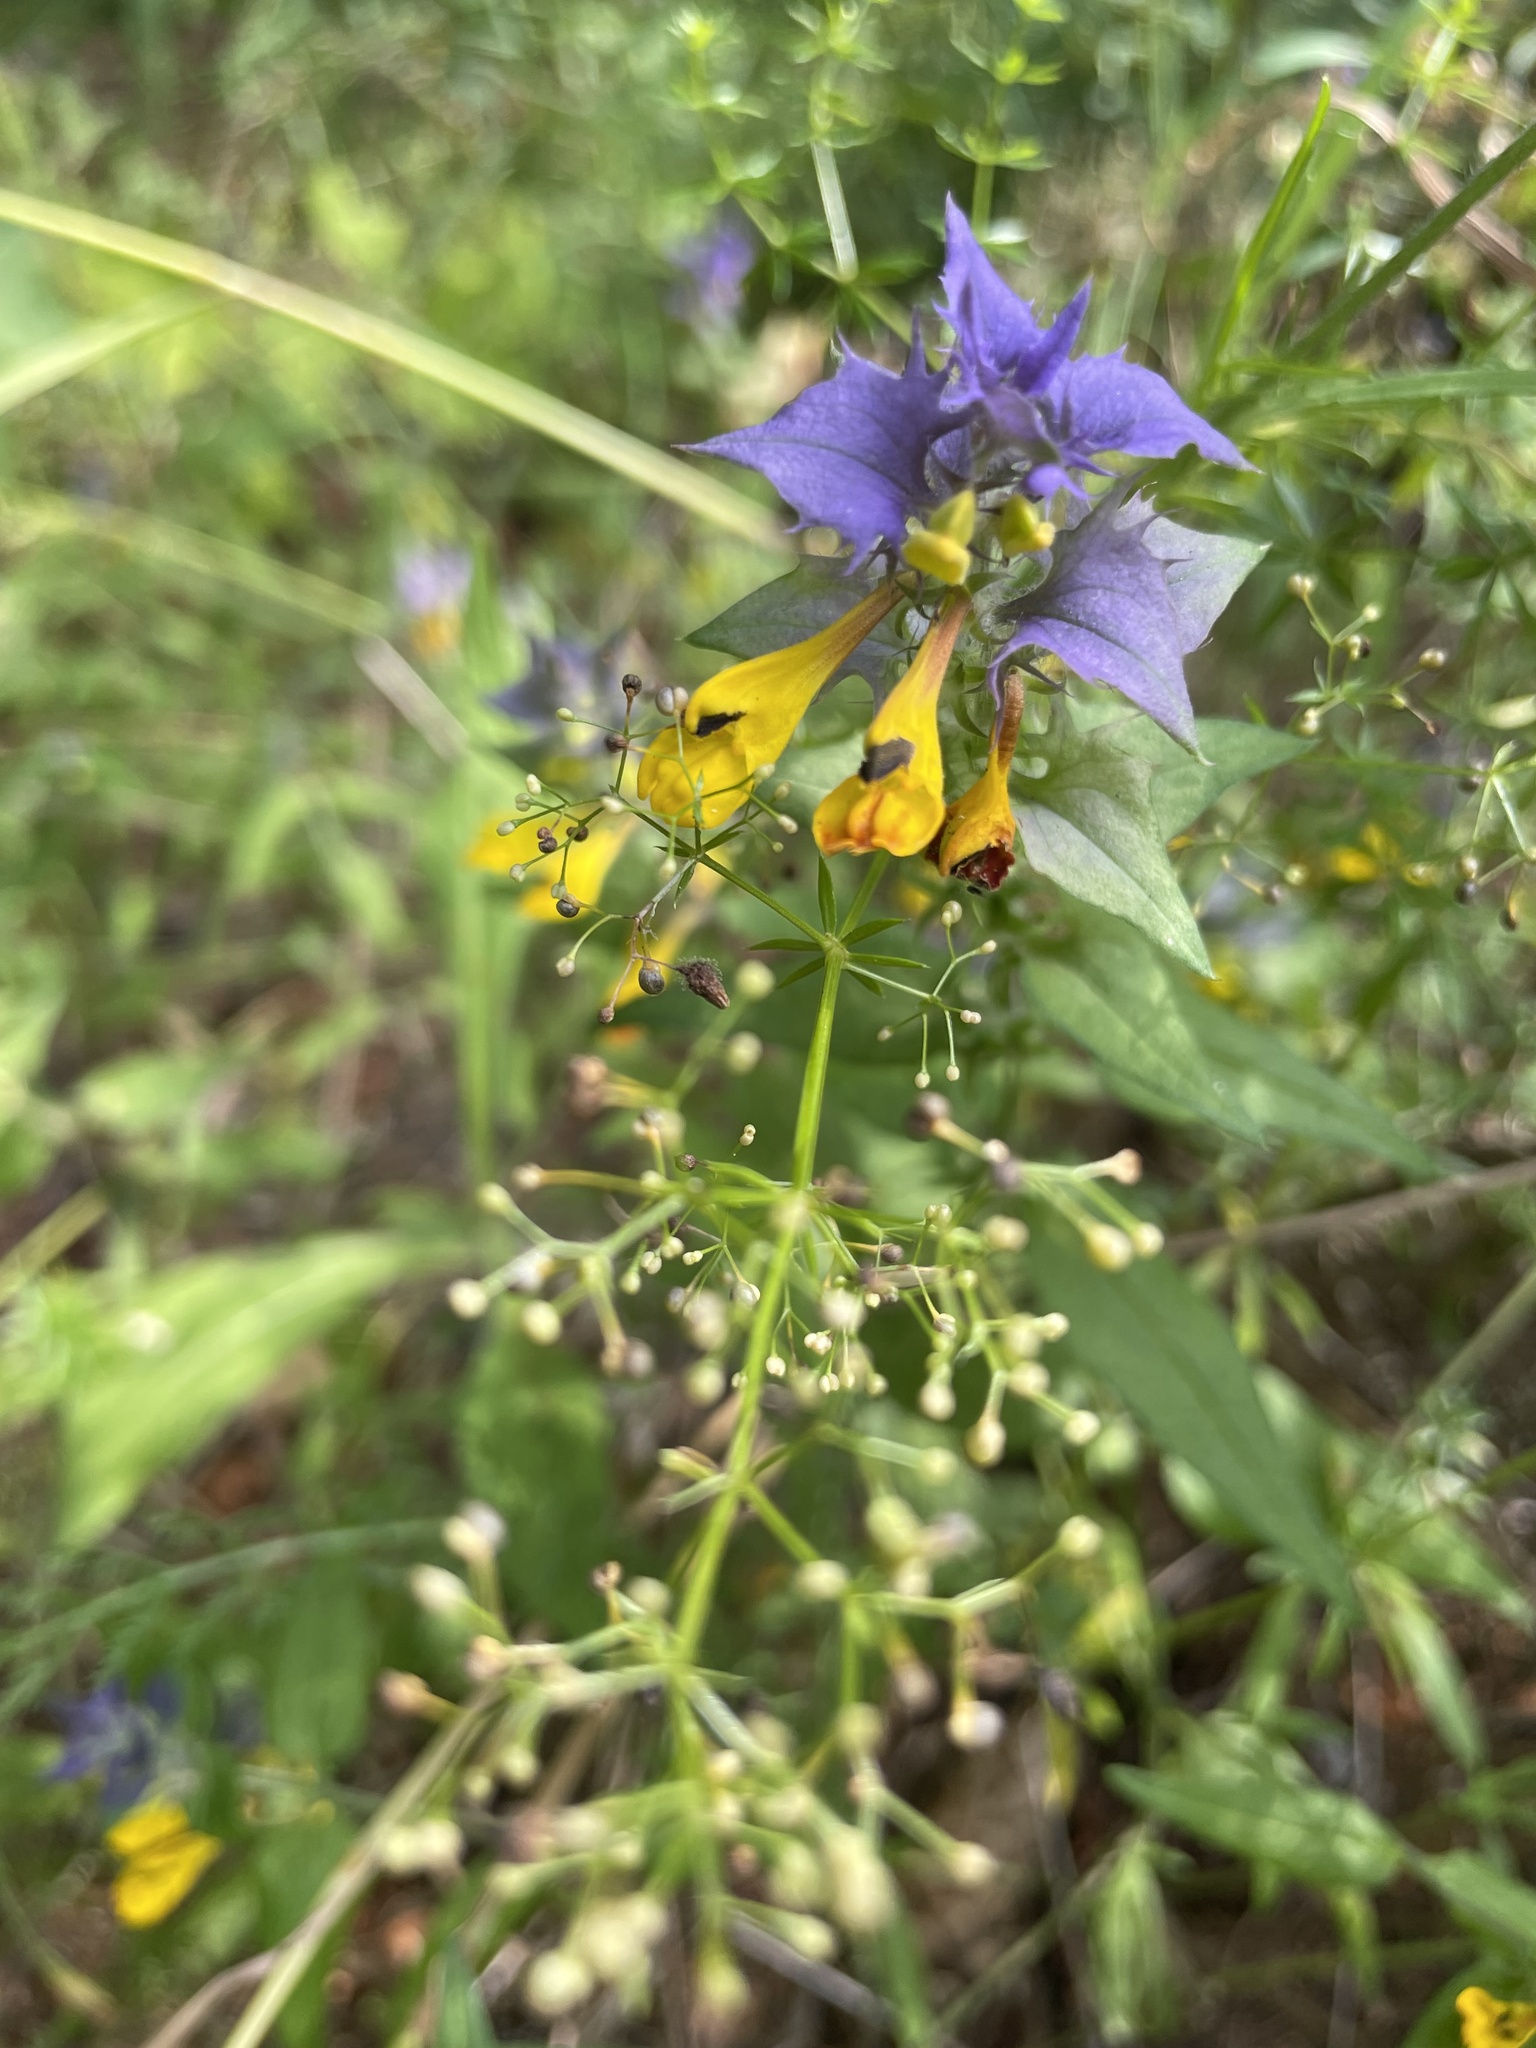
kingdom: Plantae
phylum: Tracheophyta
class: Magnoliopsida
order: Lamiales
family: Orobanchaceae
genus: Melampyrum
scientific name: Melampyrum nemorosum
